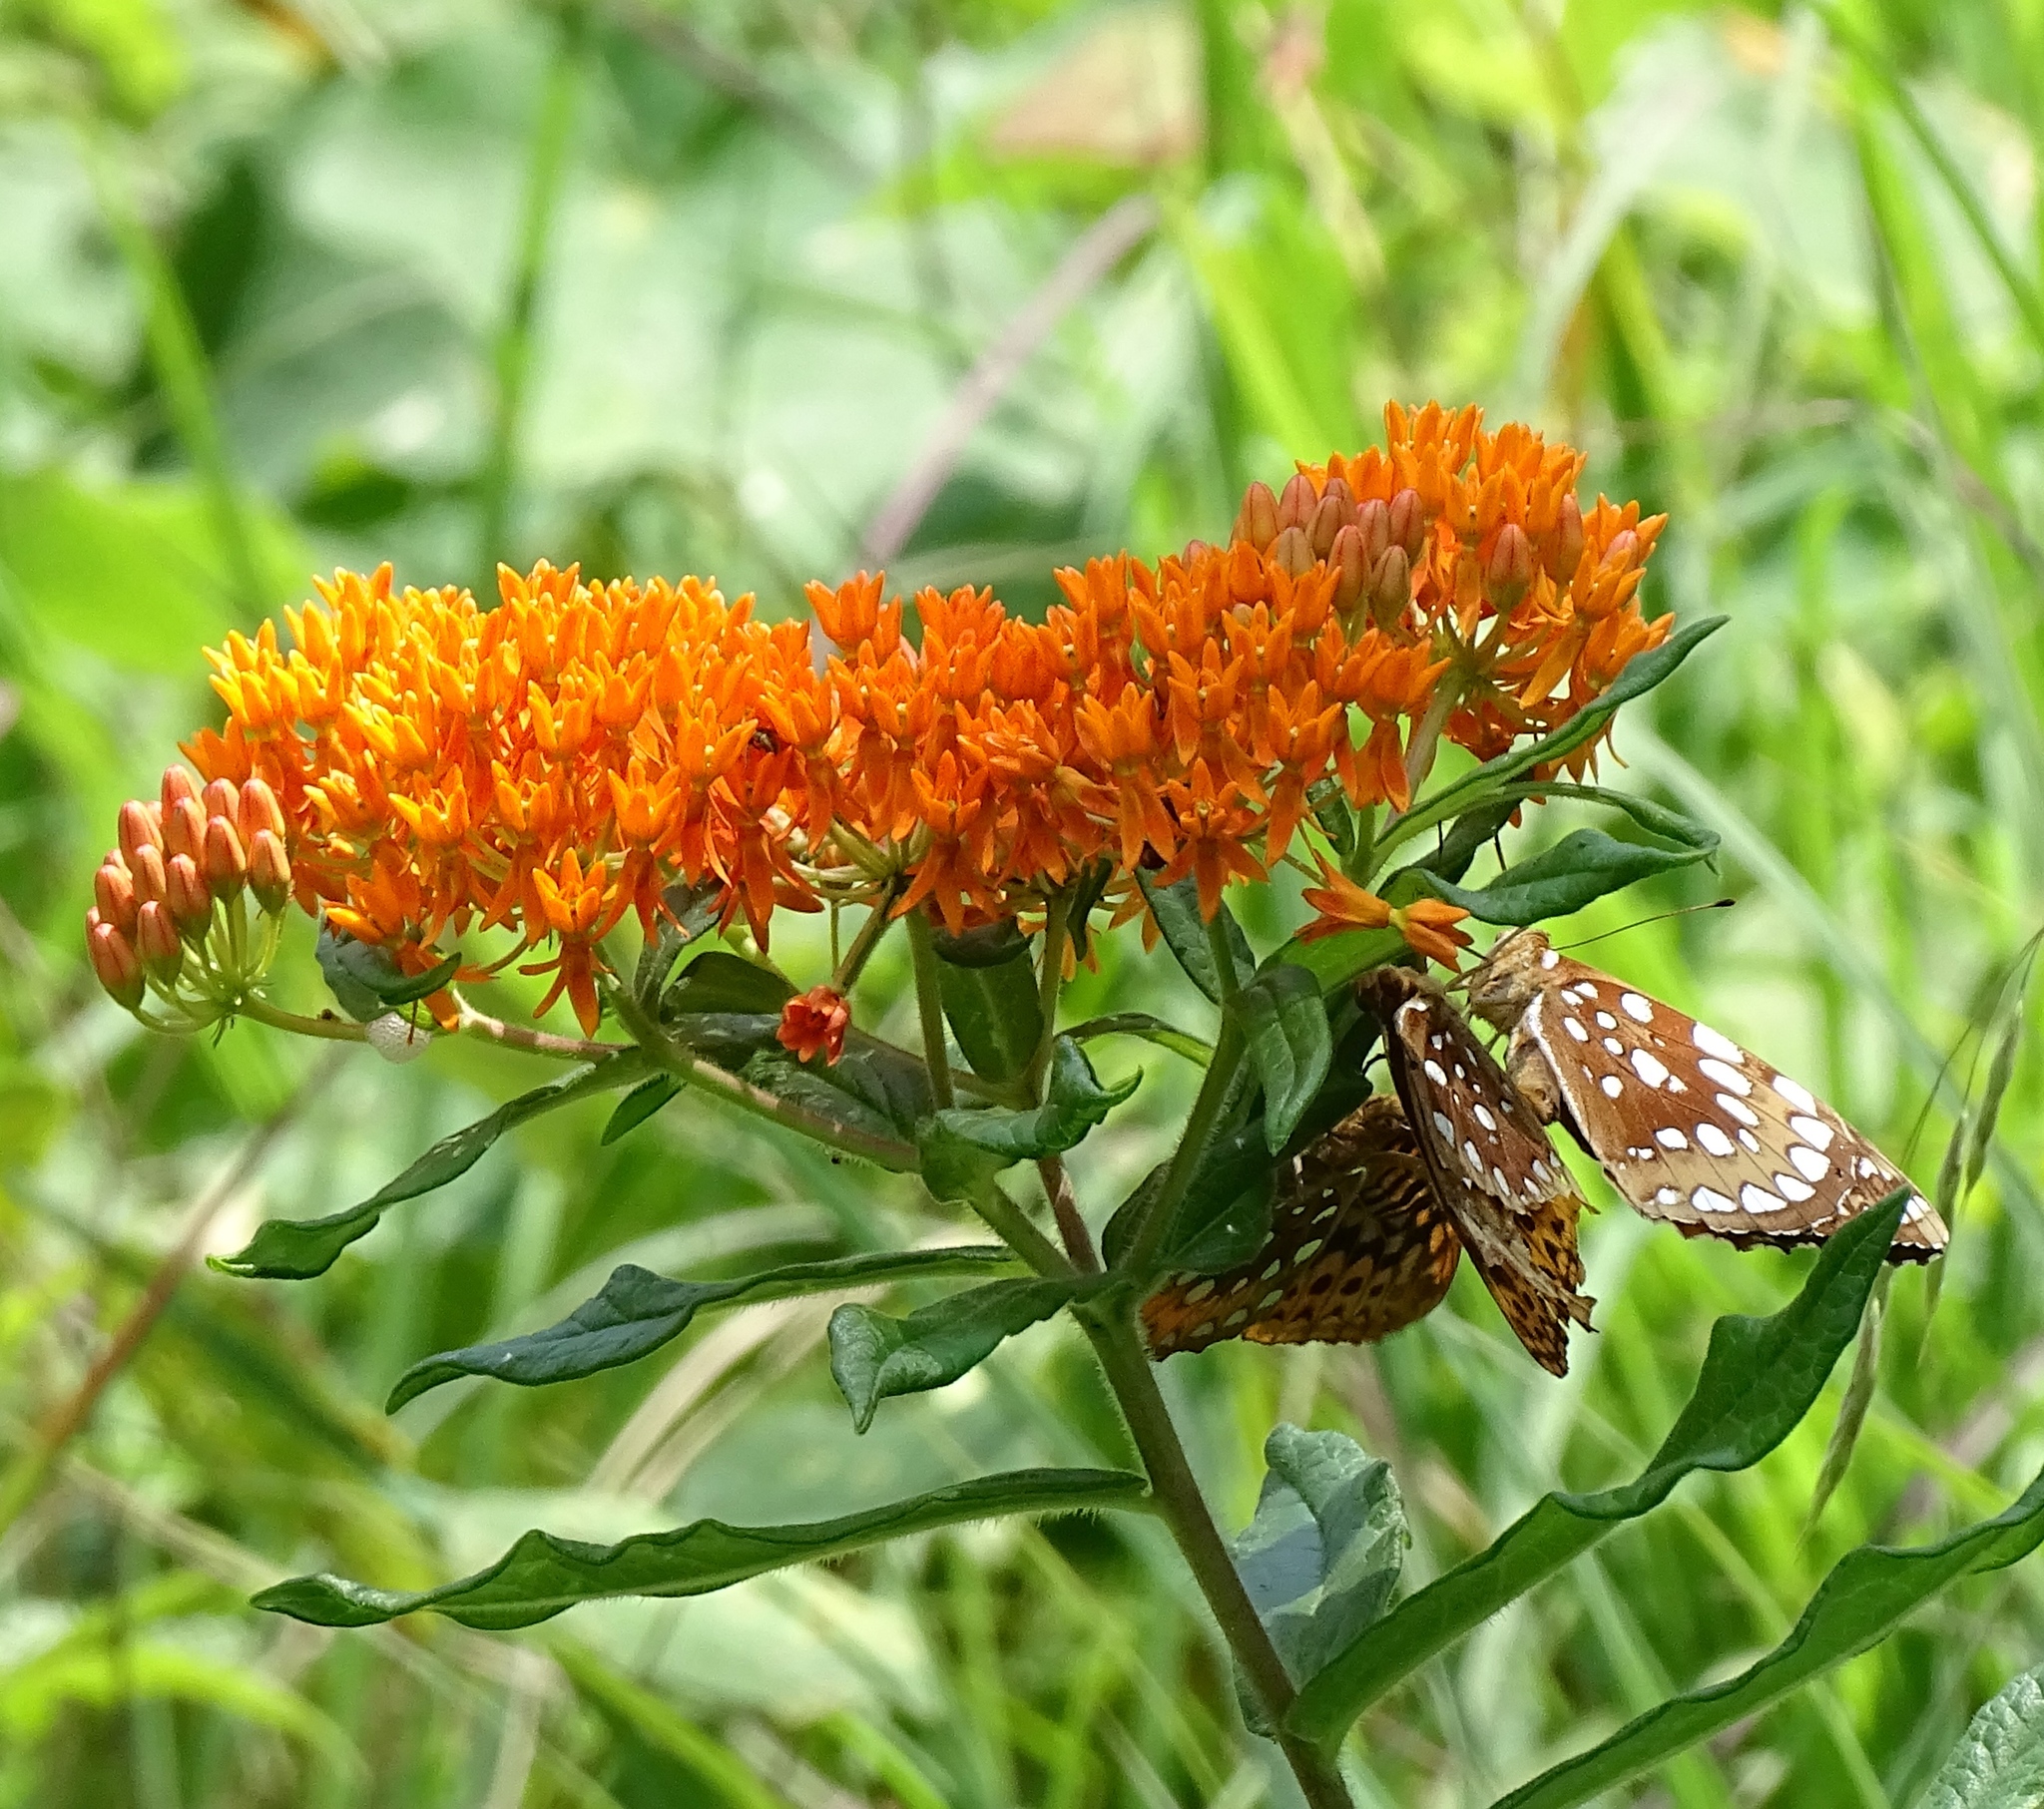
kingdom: Animalia
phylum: Arthropoda
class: Insecta
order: Lepidoptera
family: Nymphalidae
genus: Speyeria
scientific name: Speyeria cybele
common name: Great spangled fritillary
